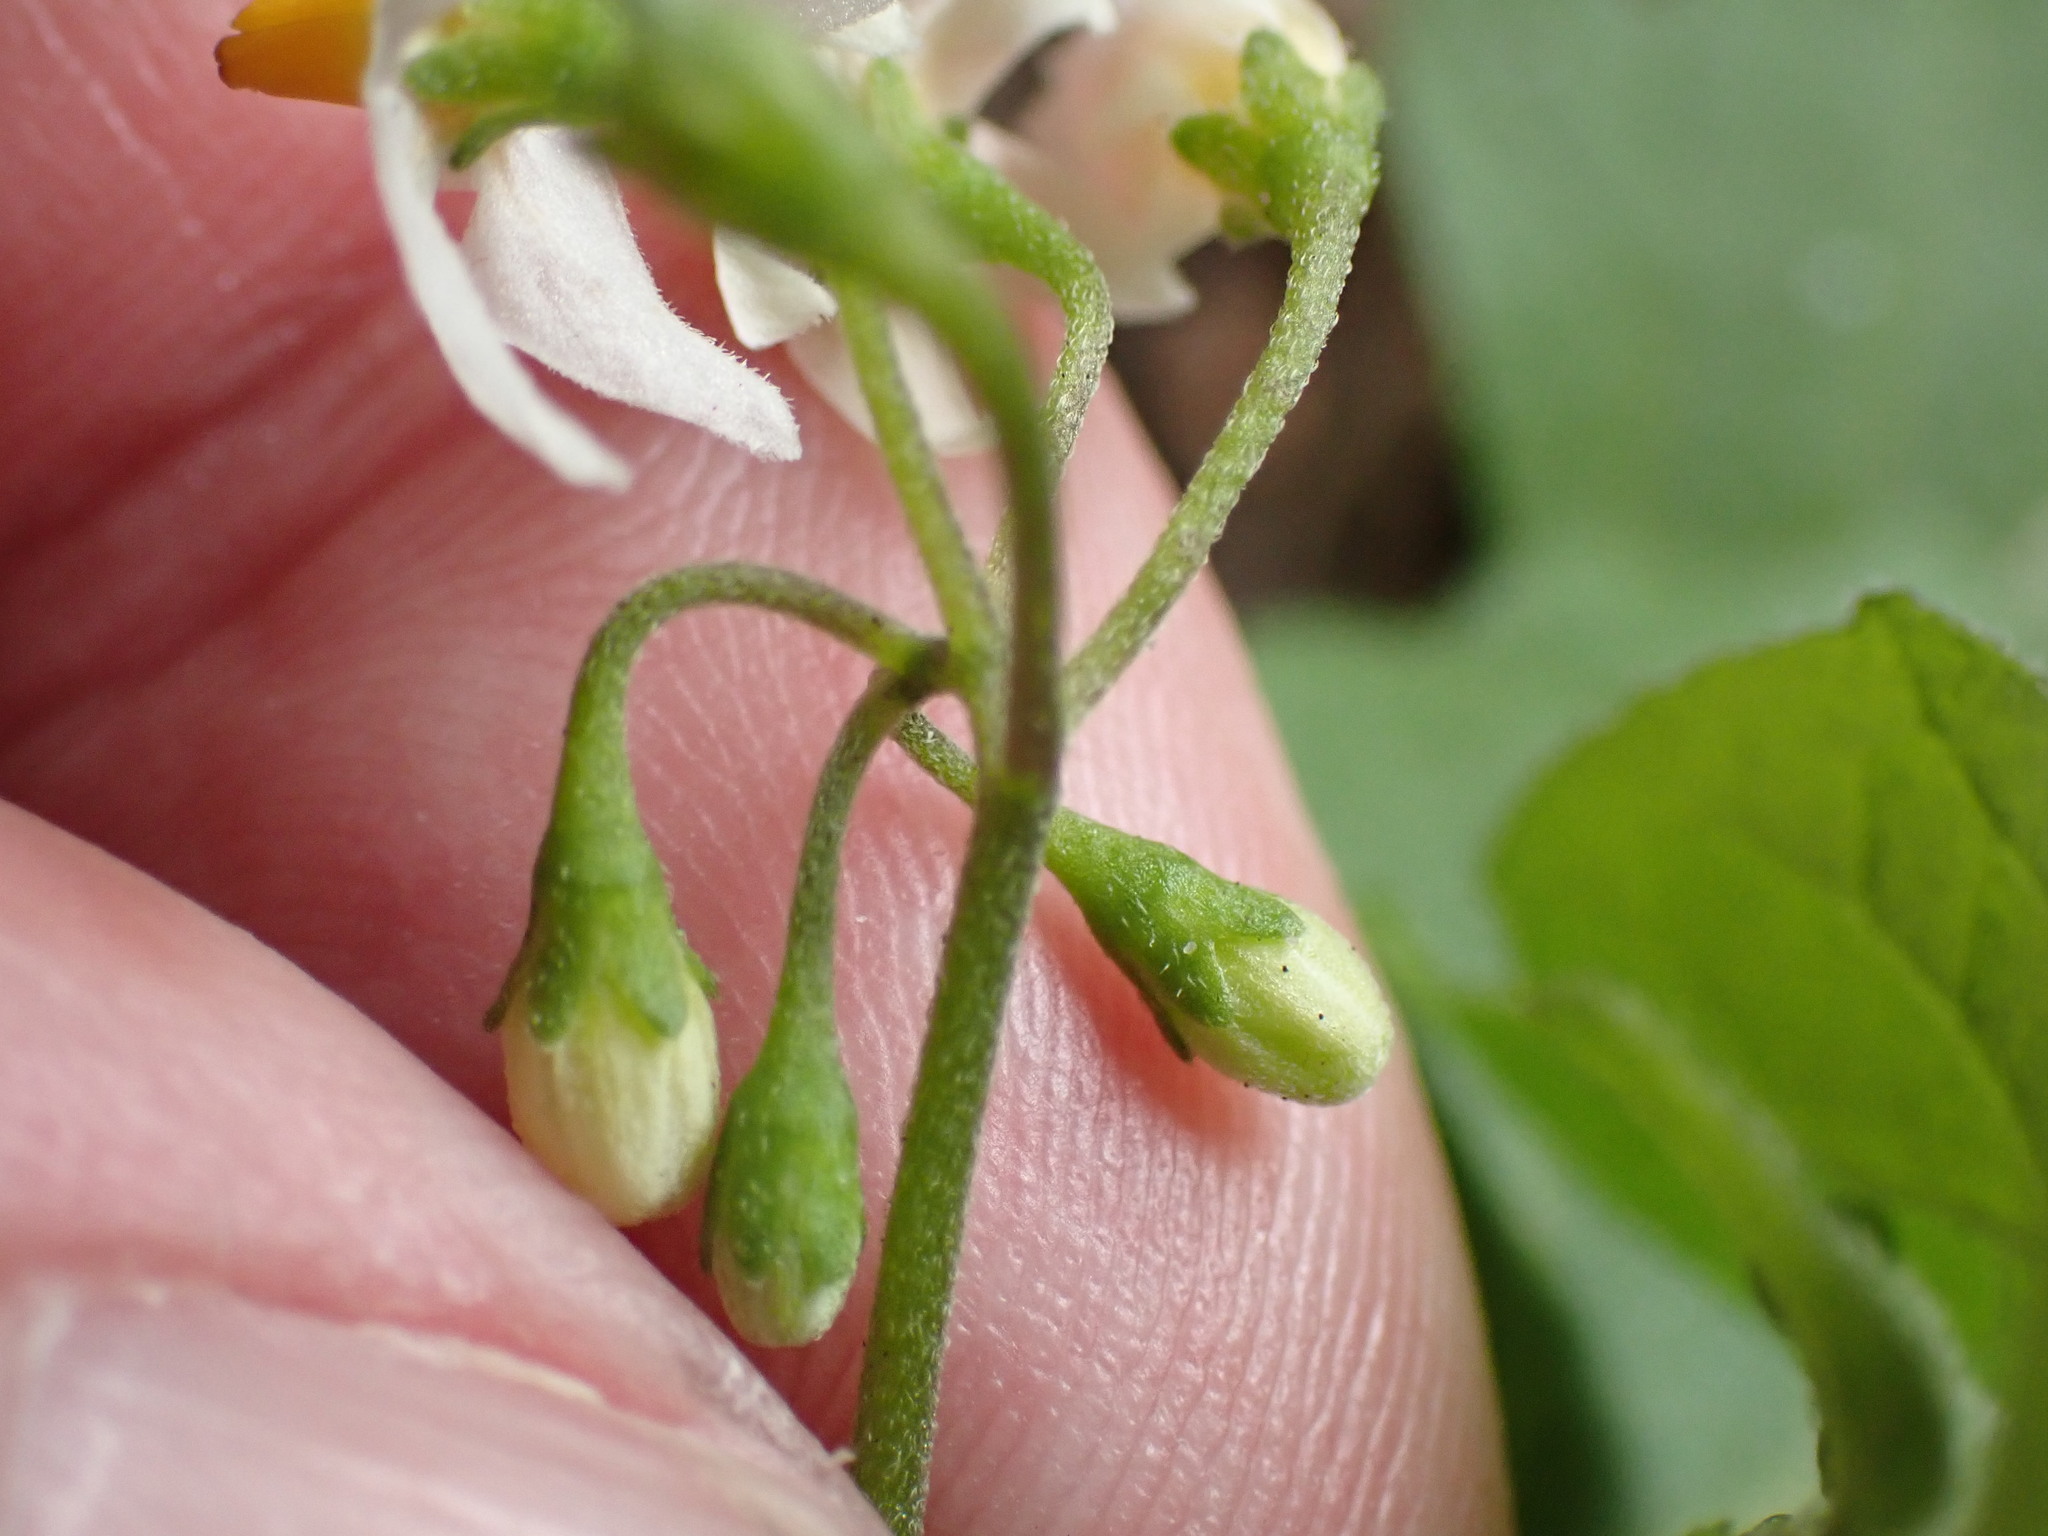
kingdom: Plantae
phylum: Tracheophyta
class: Magnoliopsida
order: Solanales
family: Solanaceae
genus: Solanum
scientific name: Solanum nigrum
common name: Black nightshade
